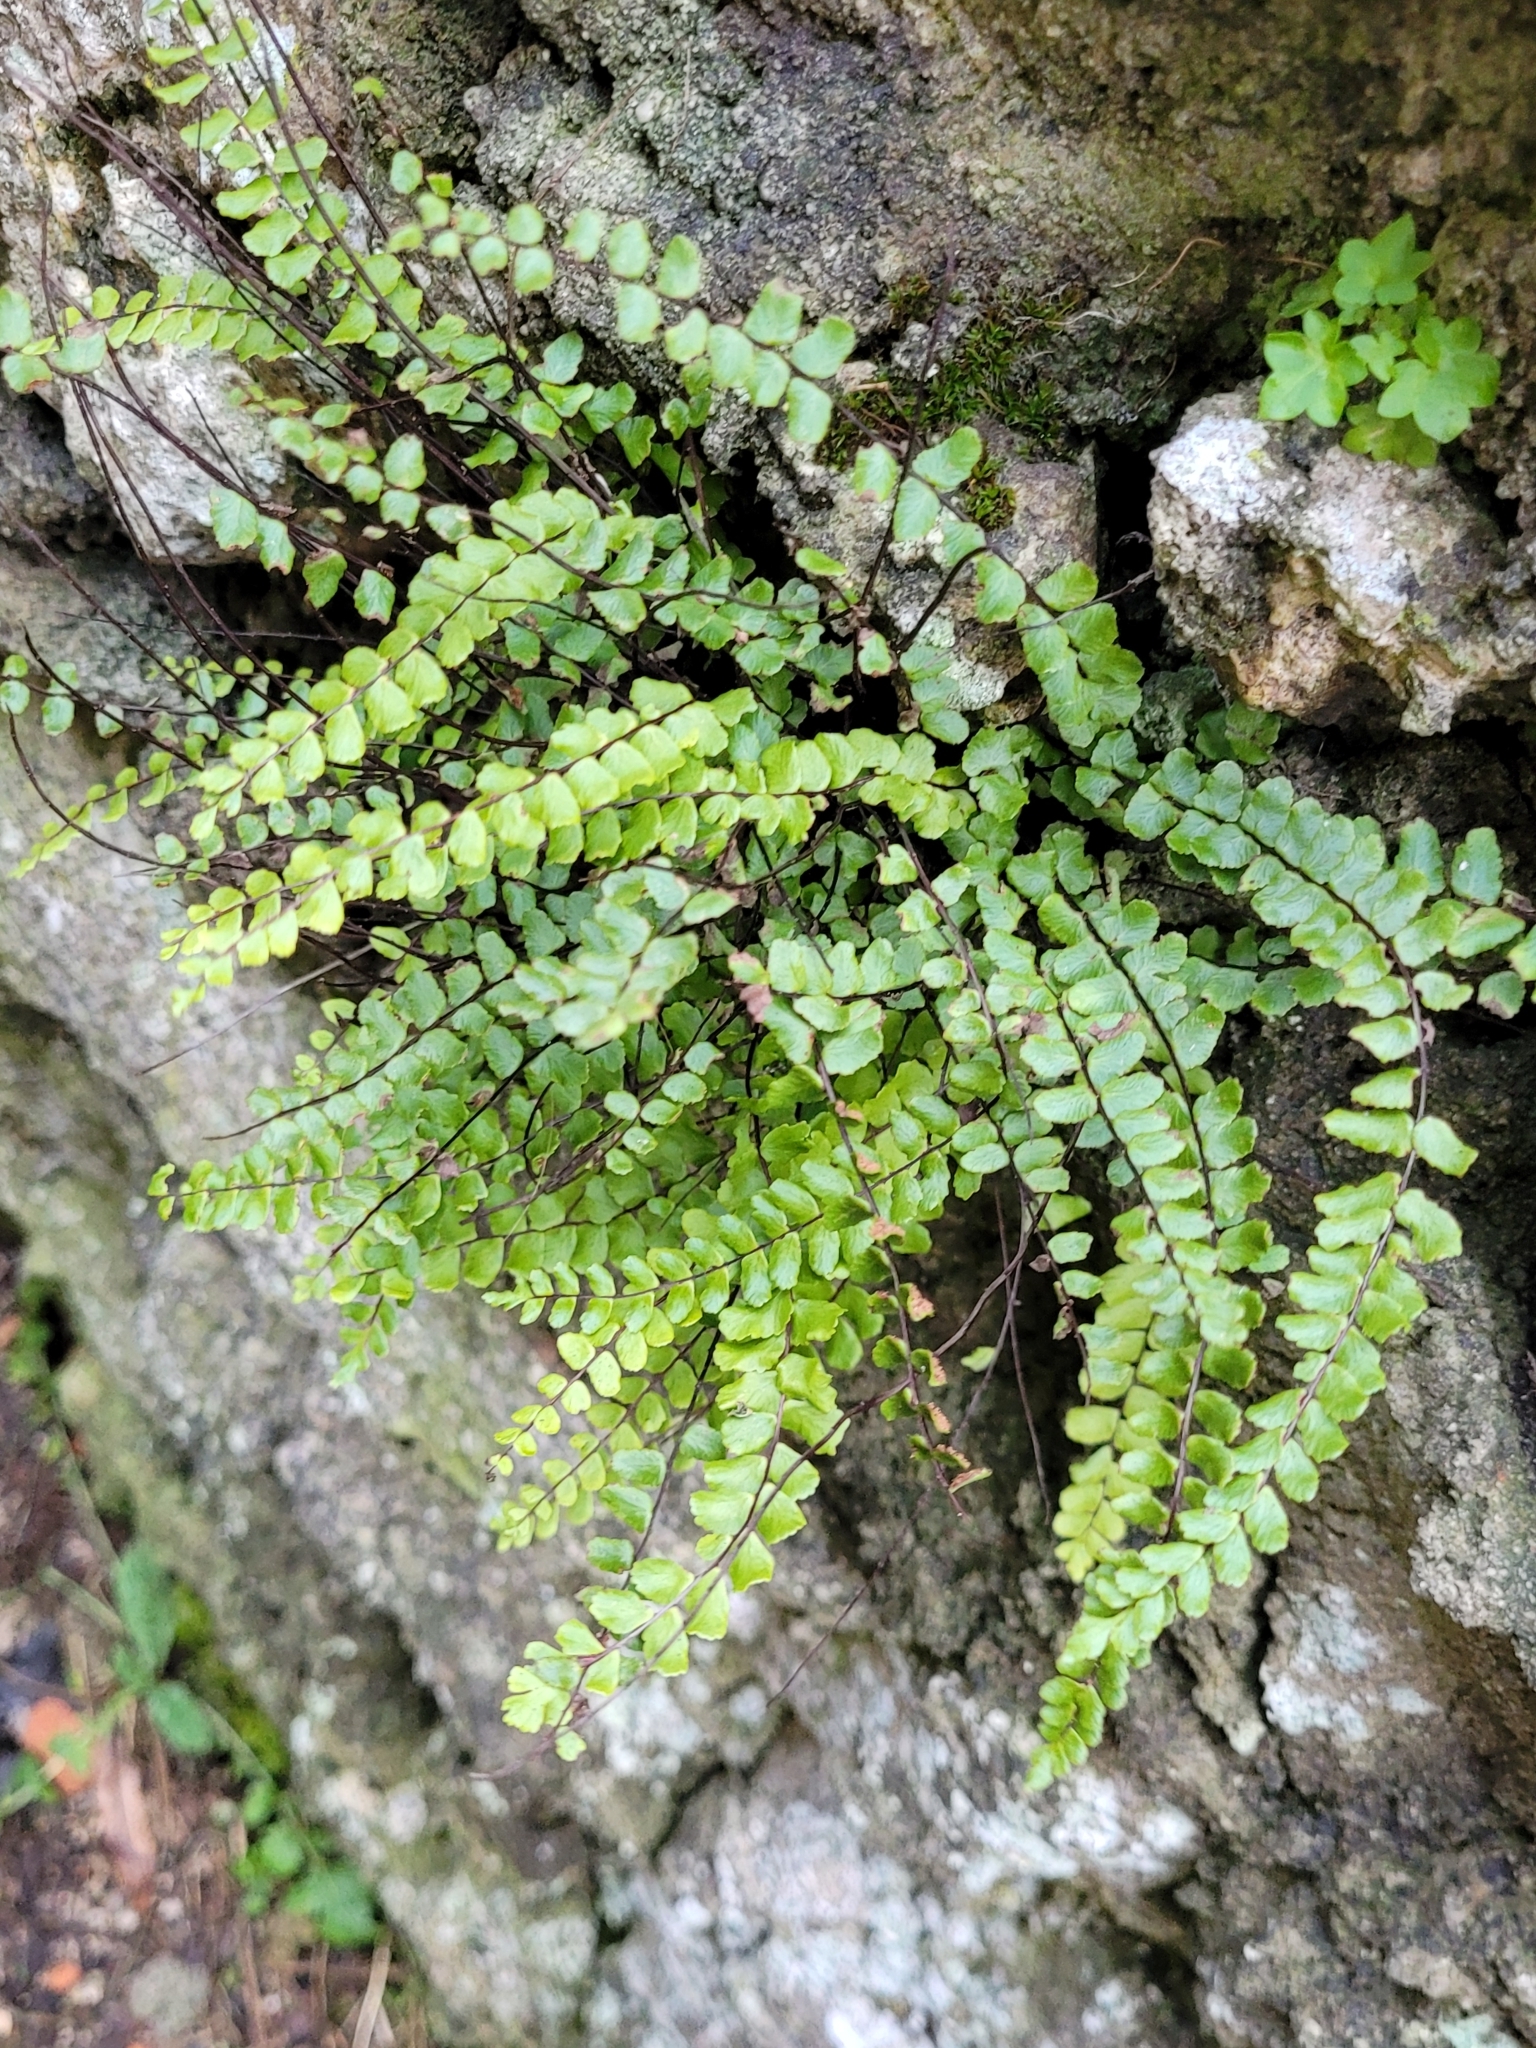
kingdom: Plantae
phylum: Tracheophyta
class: Polypodiopsida
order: Polypodiales
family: Aspleniaceae
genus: Asplenium
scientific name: Asplenium trichomanes
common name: Maidenhair spleenwort
